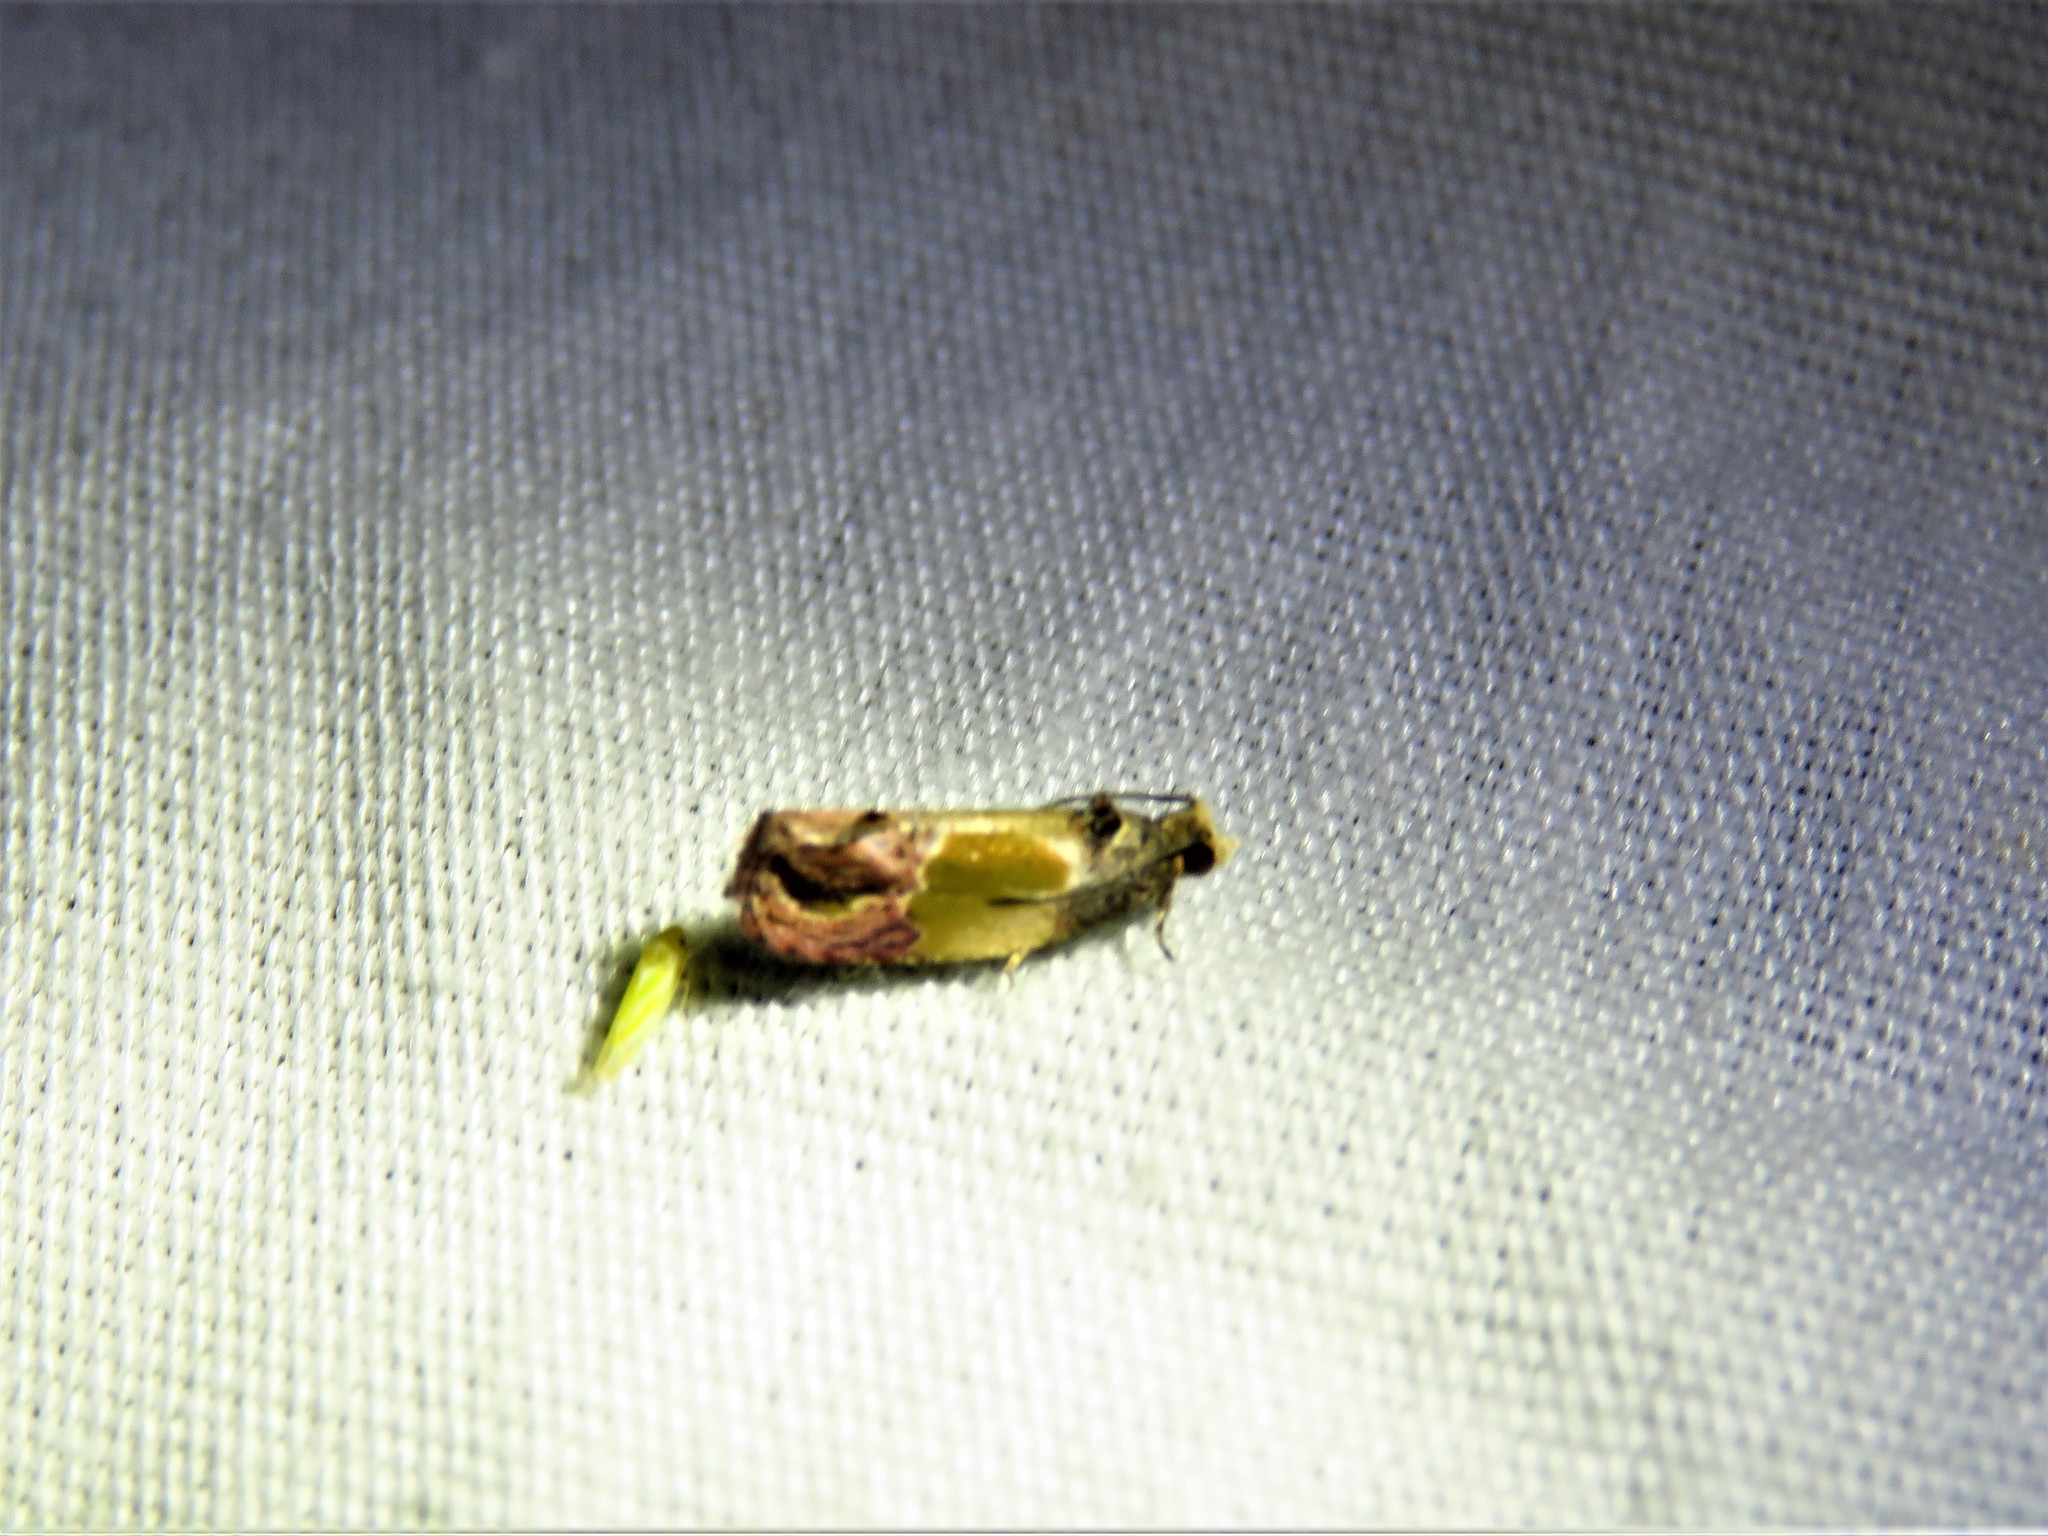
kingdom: Animalia
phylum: Arthropoda
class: Insecta
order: Lepidoptera
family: Tortricidae
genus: Eumarozia
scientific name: Eumarozia malachitana
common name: Sculptured moth
